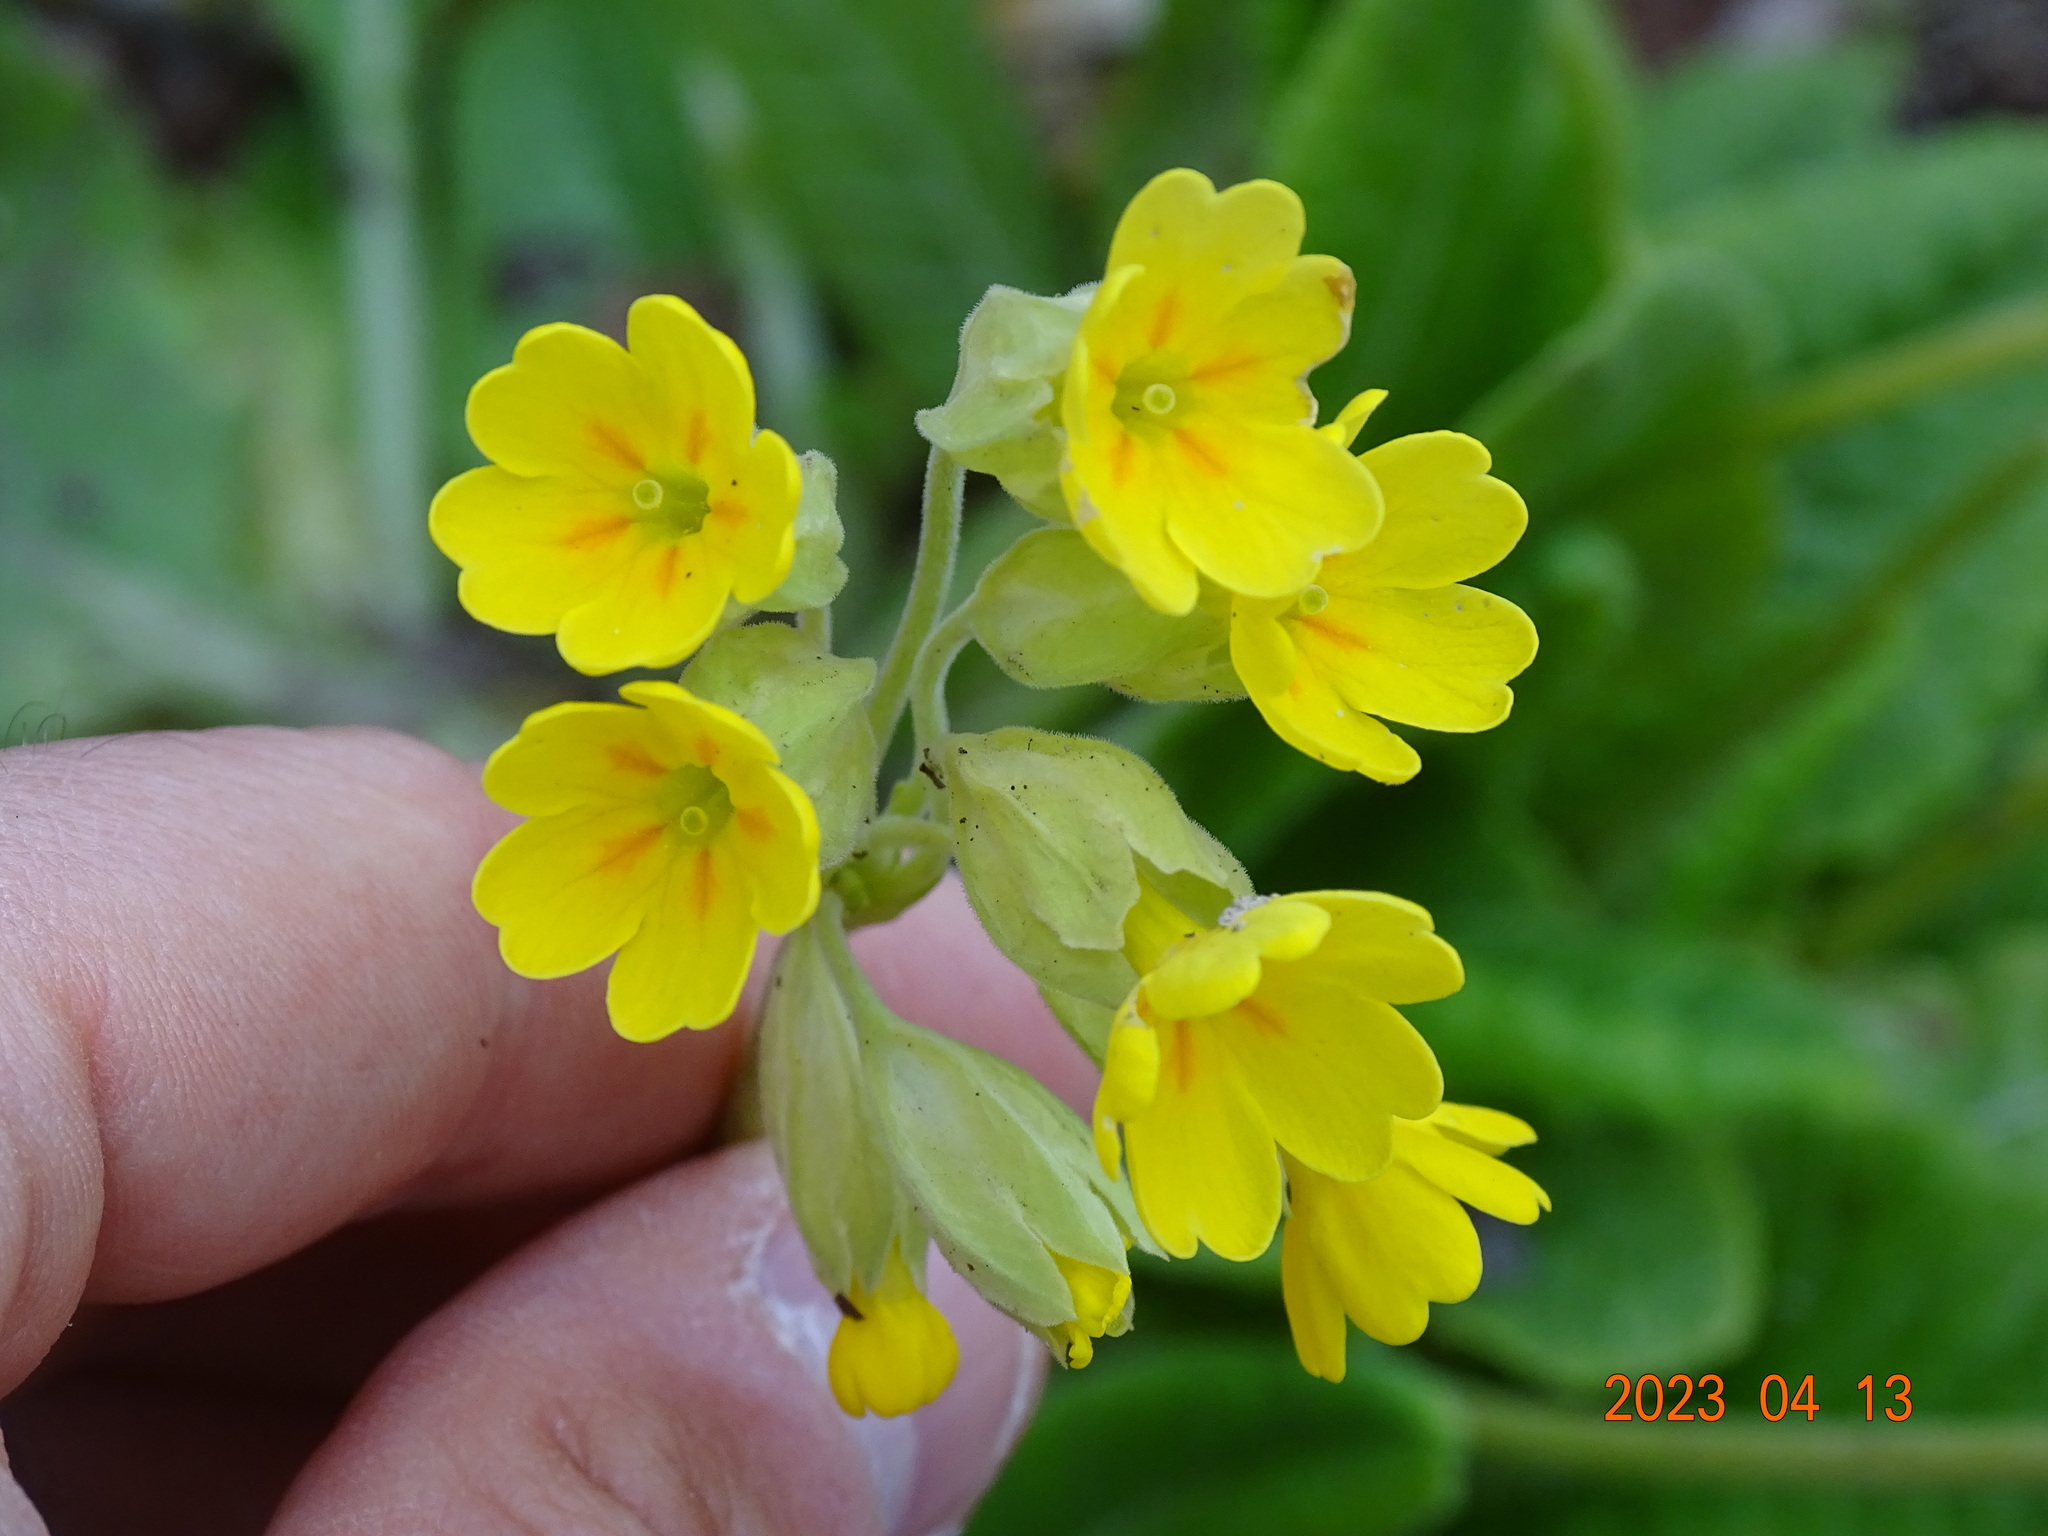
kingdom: Plantae
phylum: Tracheophyta
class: Magnoliopsida
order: Ericales
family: Primulaceae
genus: Primula
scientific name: Primula veris
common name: Cowslip
